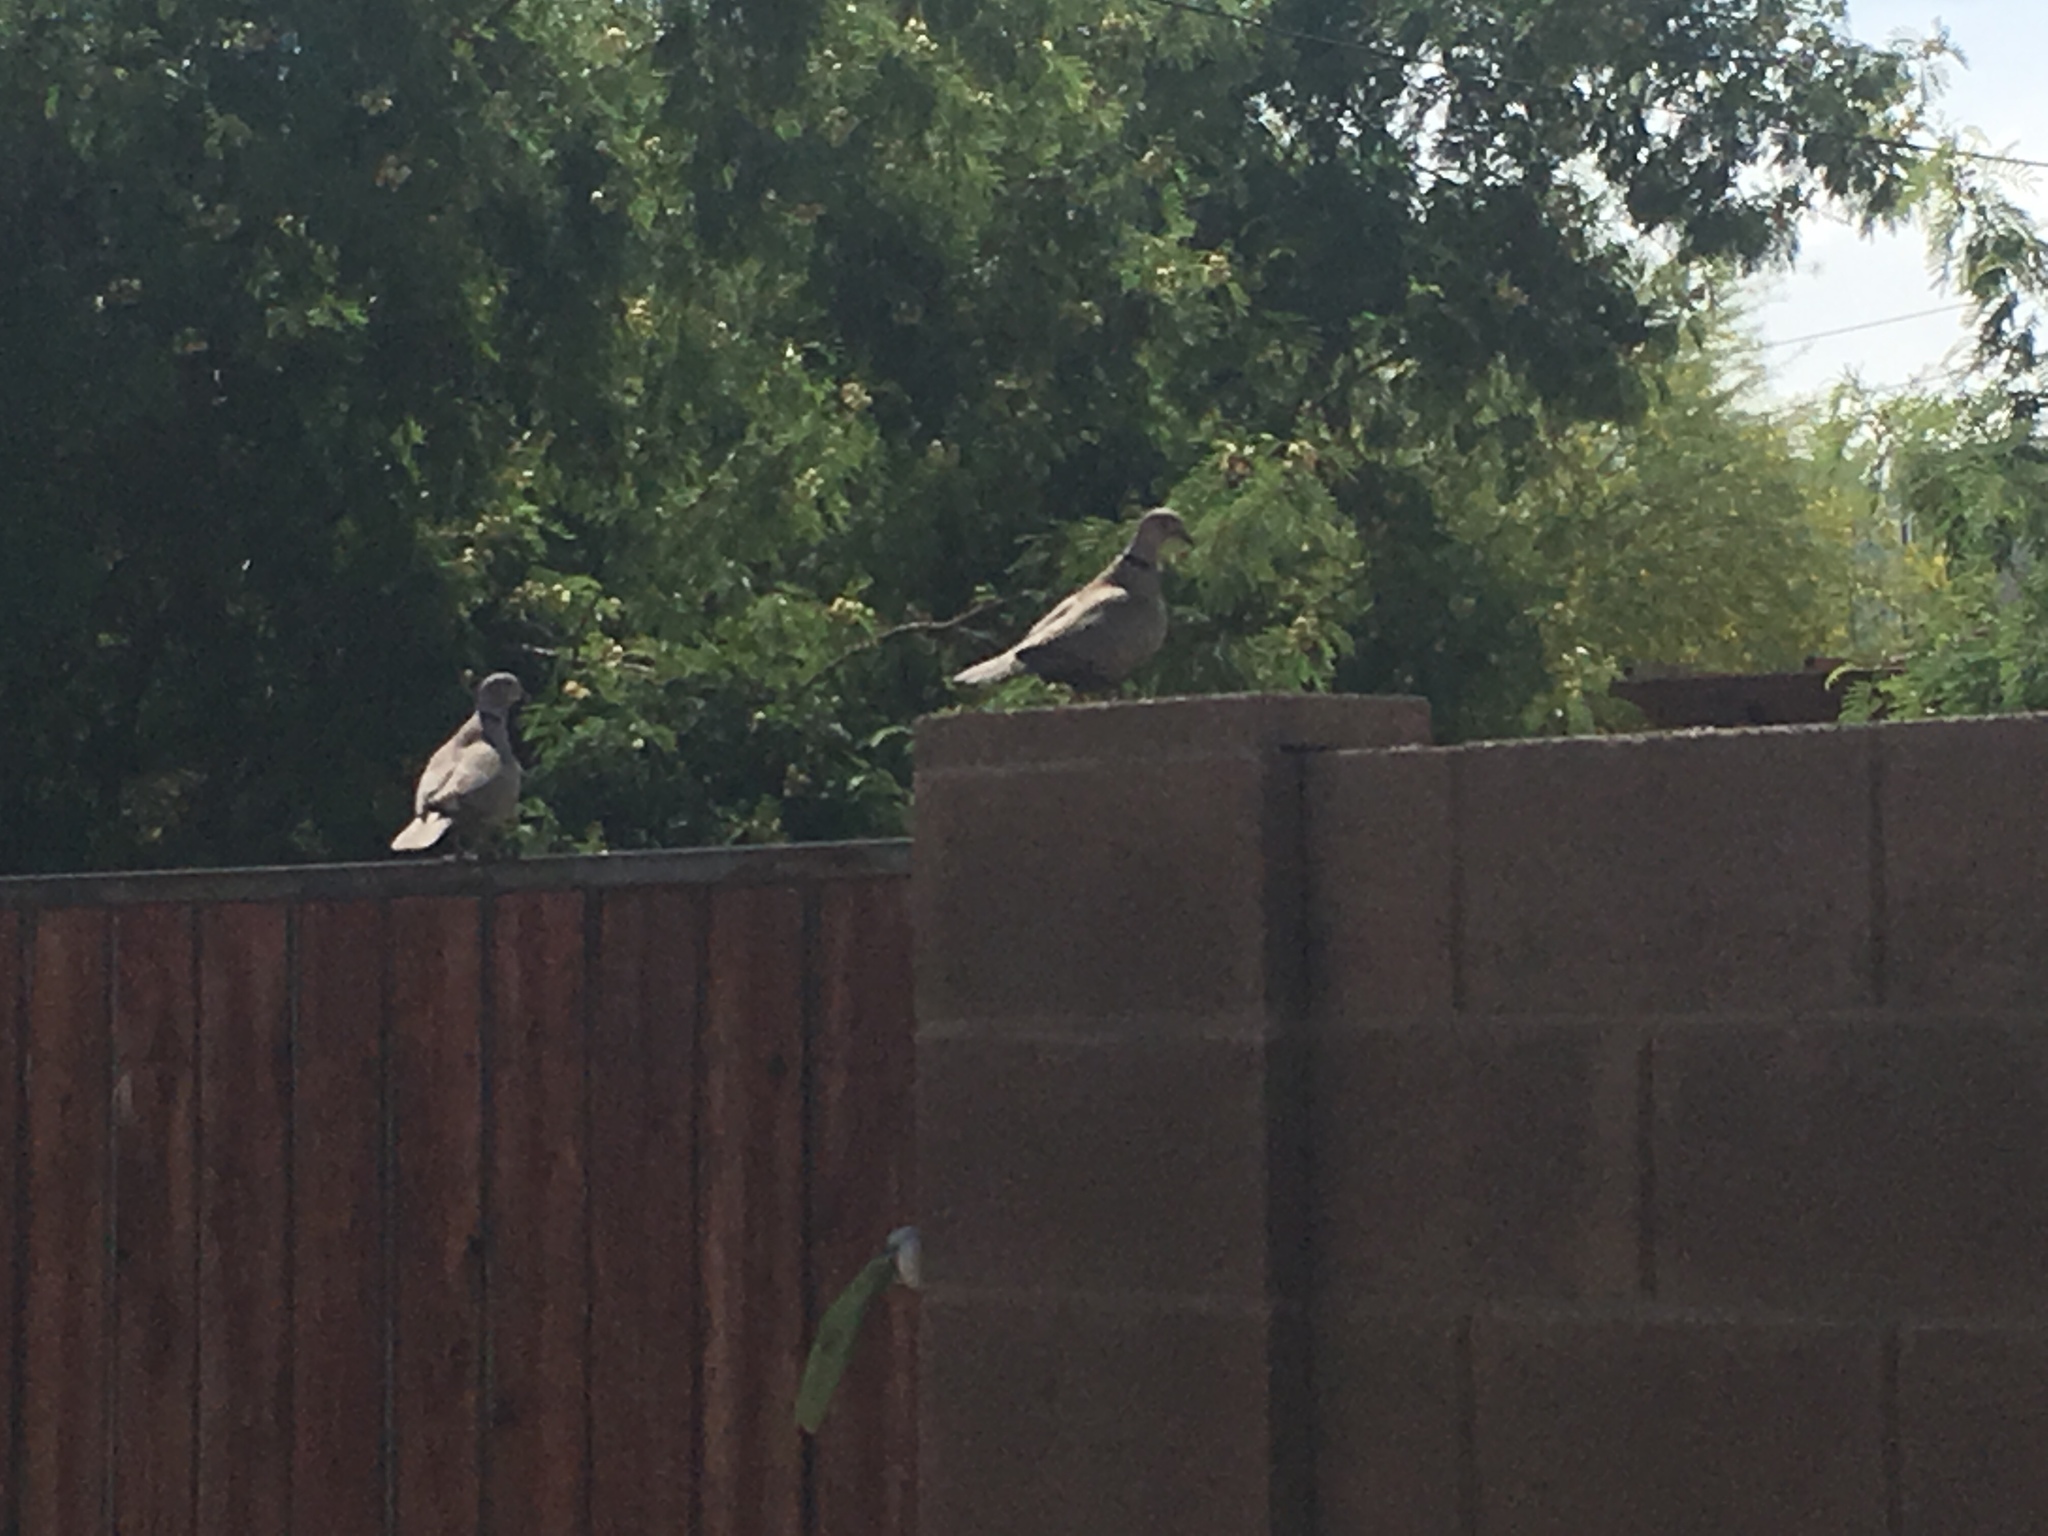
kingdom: Animalia
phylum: Chordata
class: Aves
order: Columbiformes
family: Columbidae
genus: Streptopelia
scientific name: Streptopelia decaocto
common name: Eurasian collared dove
